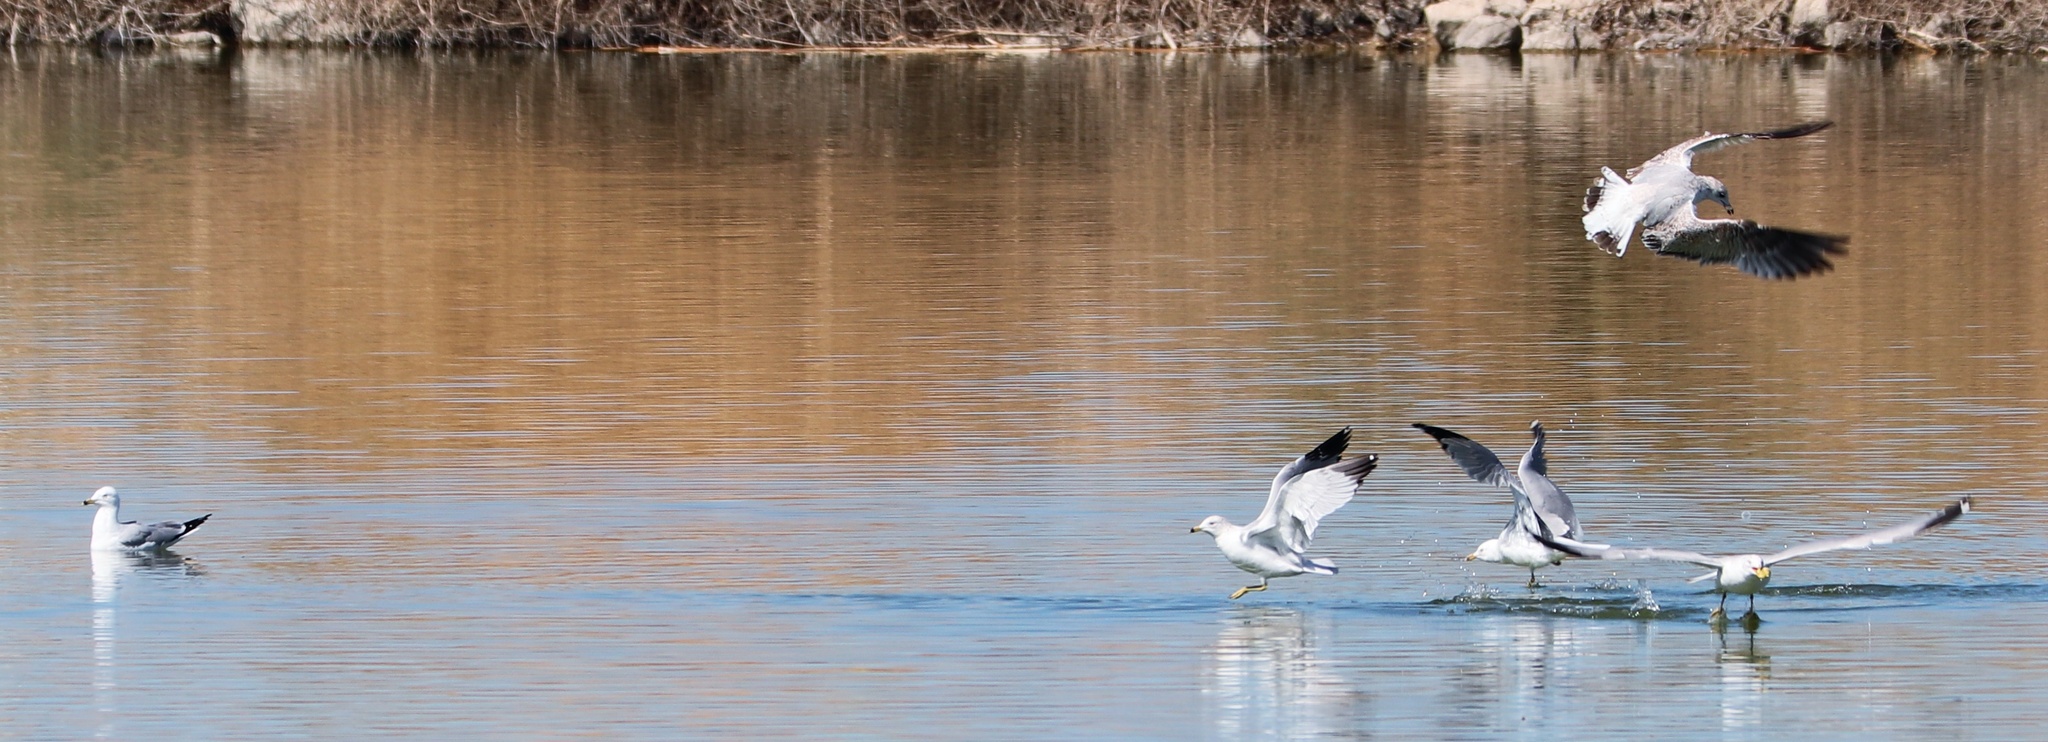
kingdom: Animalia
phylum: Chordata
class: Aves
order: Charadriiformes
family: Laridae
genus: Larus
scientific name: Larus delawarensis
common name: Ring-billed gull
